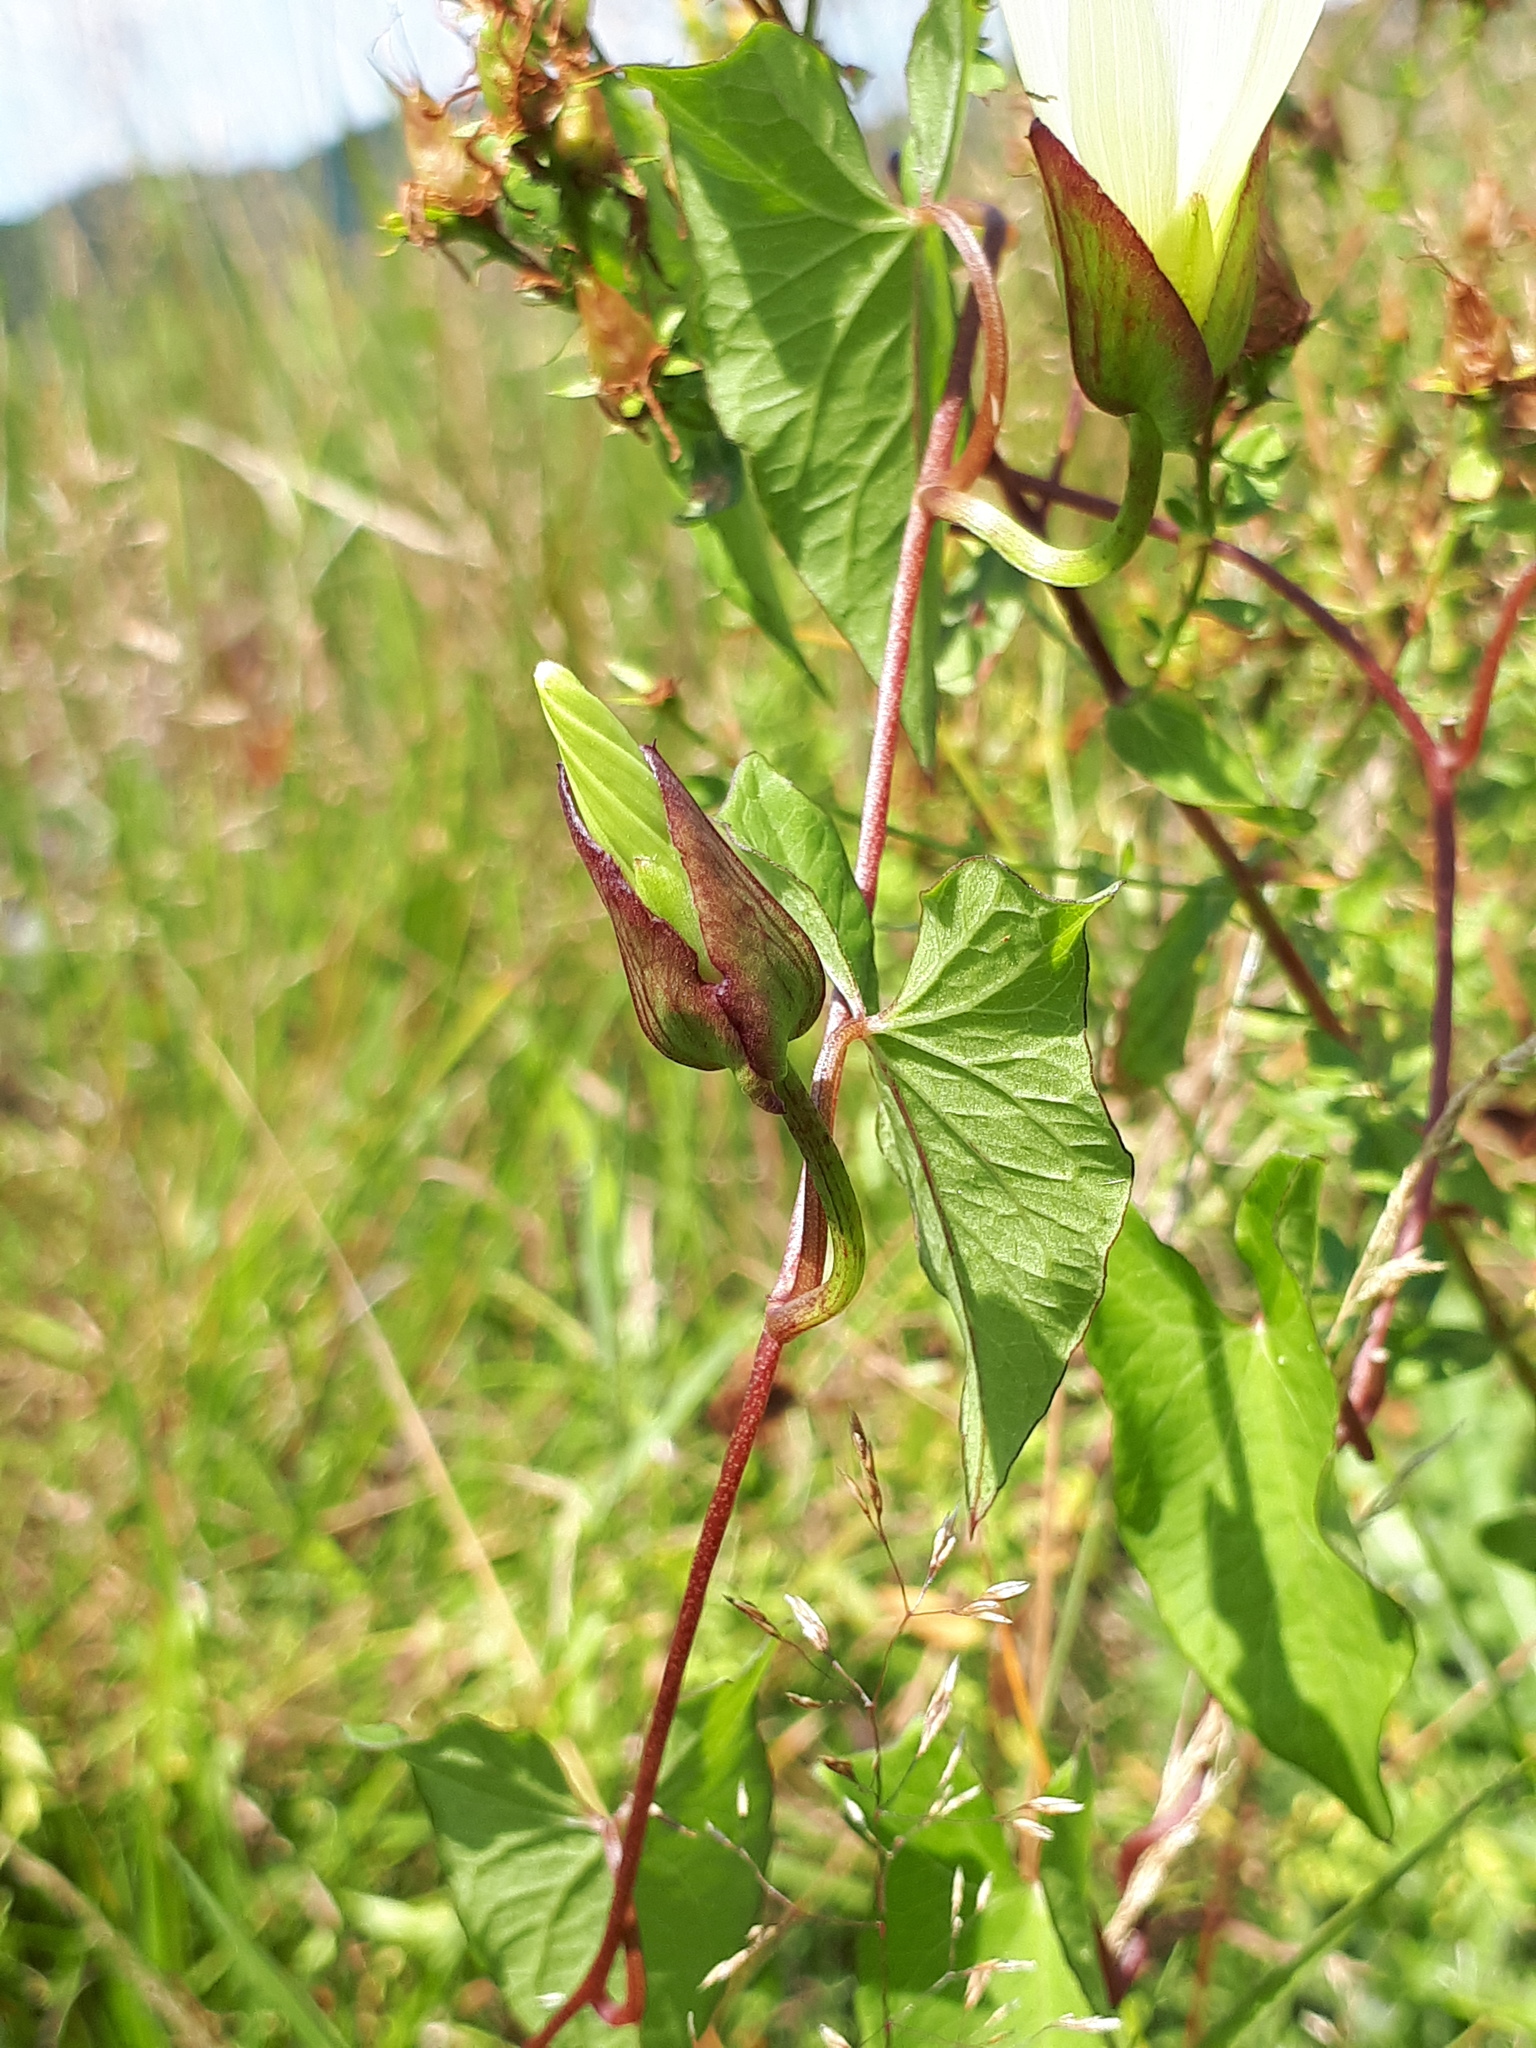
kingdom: Plantae
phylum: Tracheophyta
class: Magnoliopsida
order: Solanales
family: Convolvulaceae
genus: Calystegia
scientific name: Calystegia sepium
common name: Hedge bindweed
